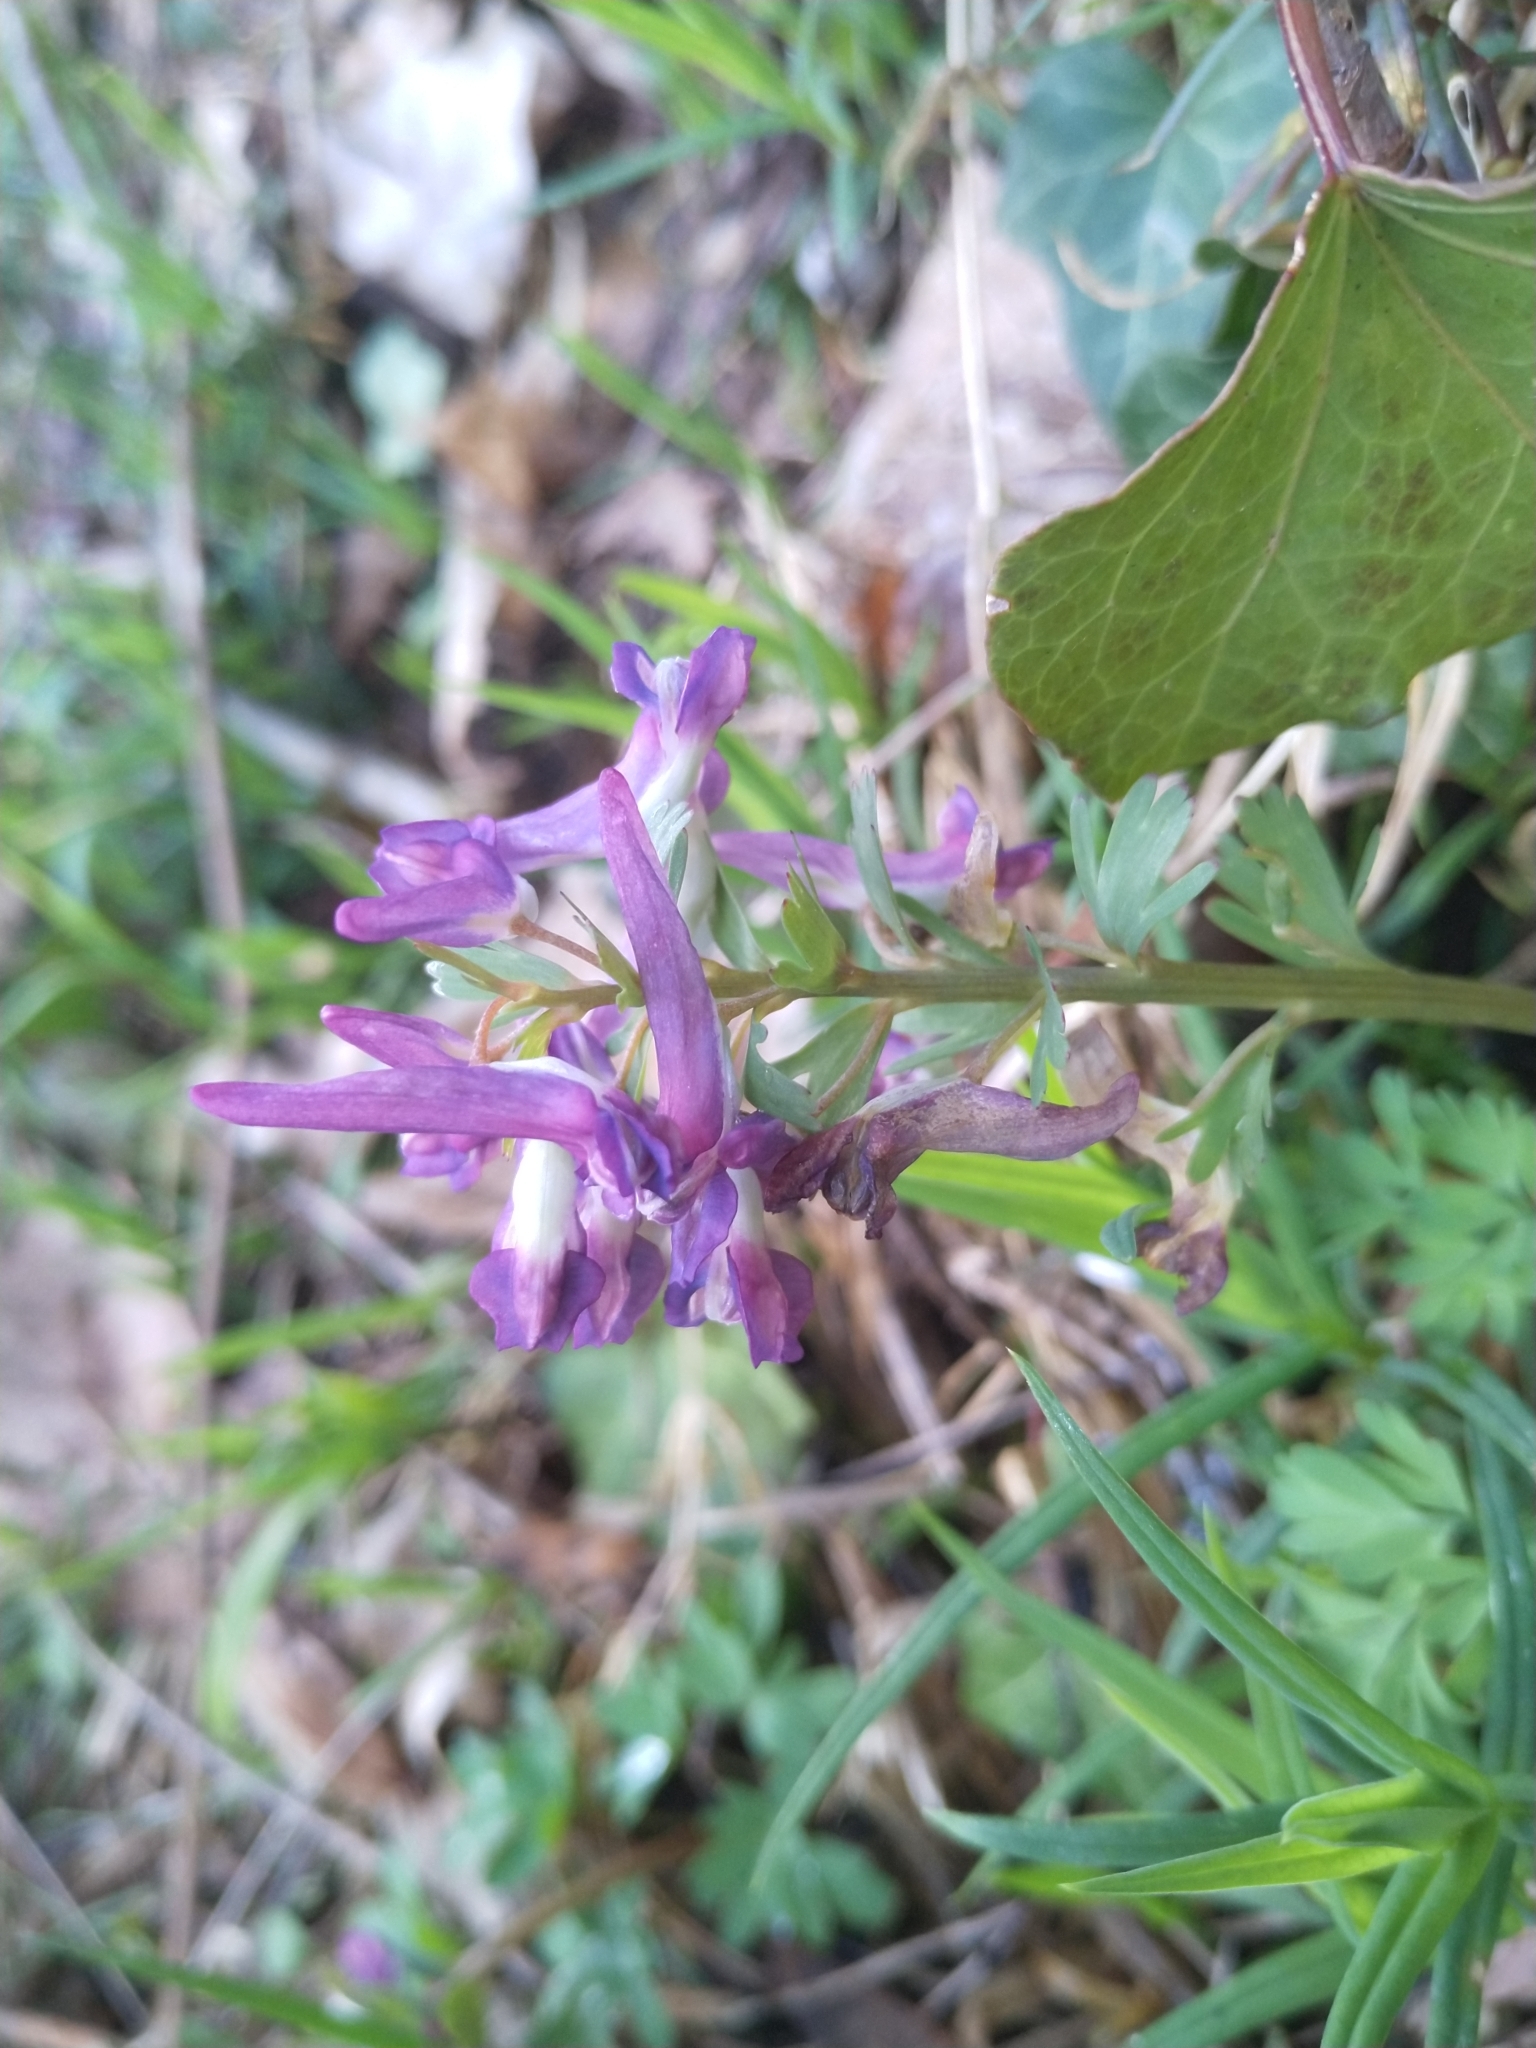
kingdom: Plantae
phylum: Tracheophyta
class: Magnoliopsida
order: Ranunculales
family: Papaveraceae
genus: Corydalis
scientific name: Corydalis solida
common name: Bird-in-a-bush
